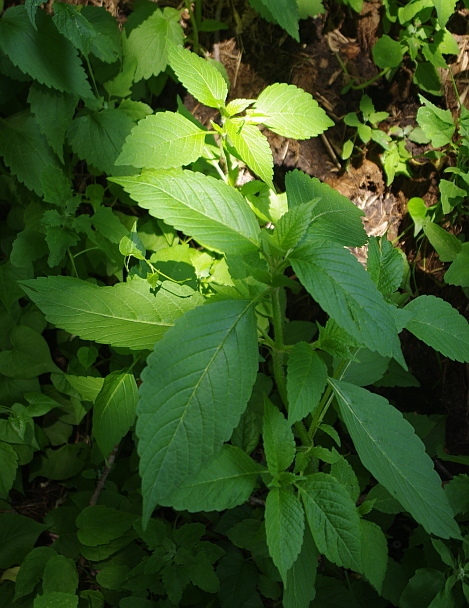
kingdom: Plantae
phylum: Tracheophyta
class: Magnoliopsida
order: Lamiales
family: Lamiaceae
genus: Galeopsis
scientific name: Galeopsis bifida
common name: Bifid hemp-nettle
